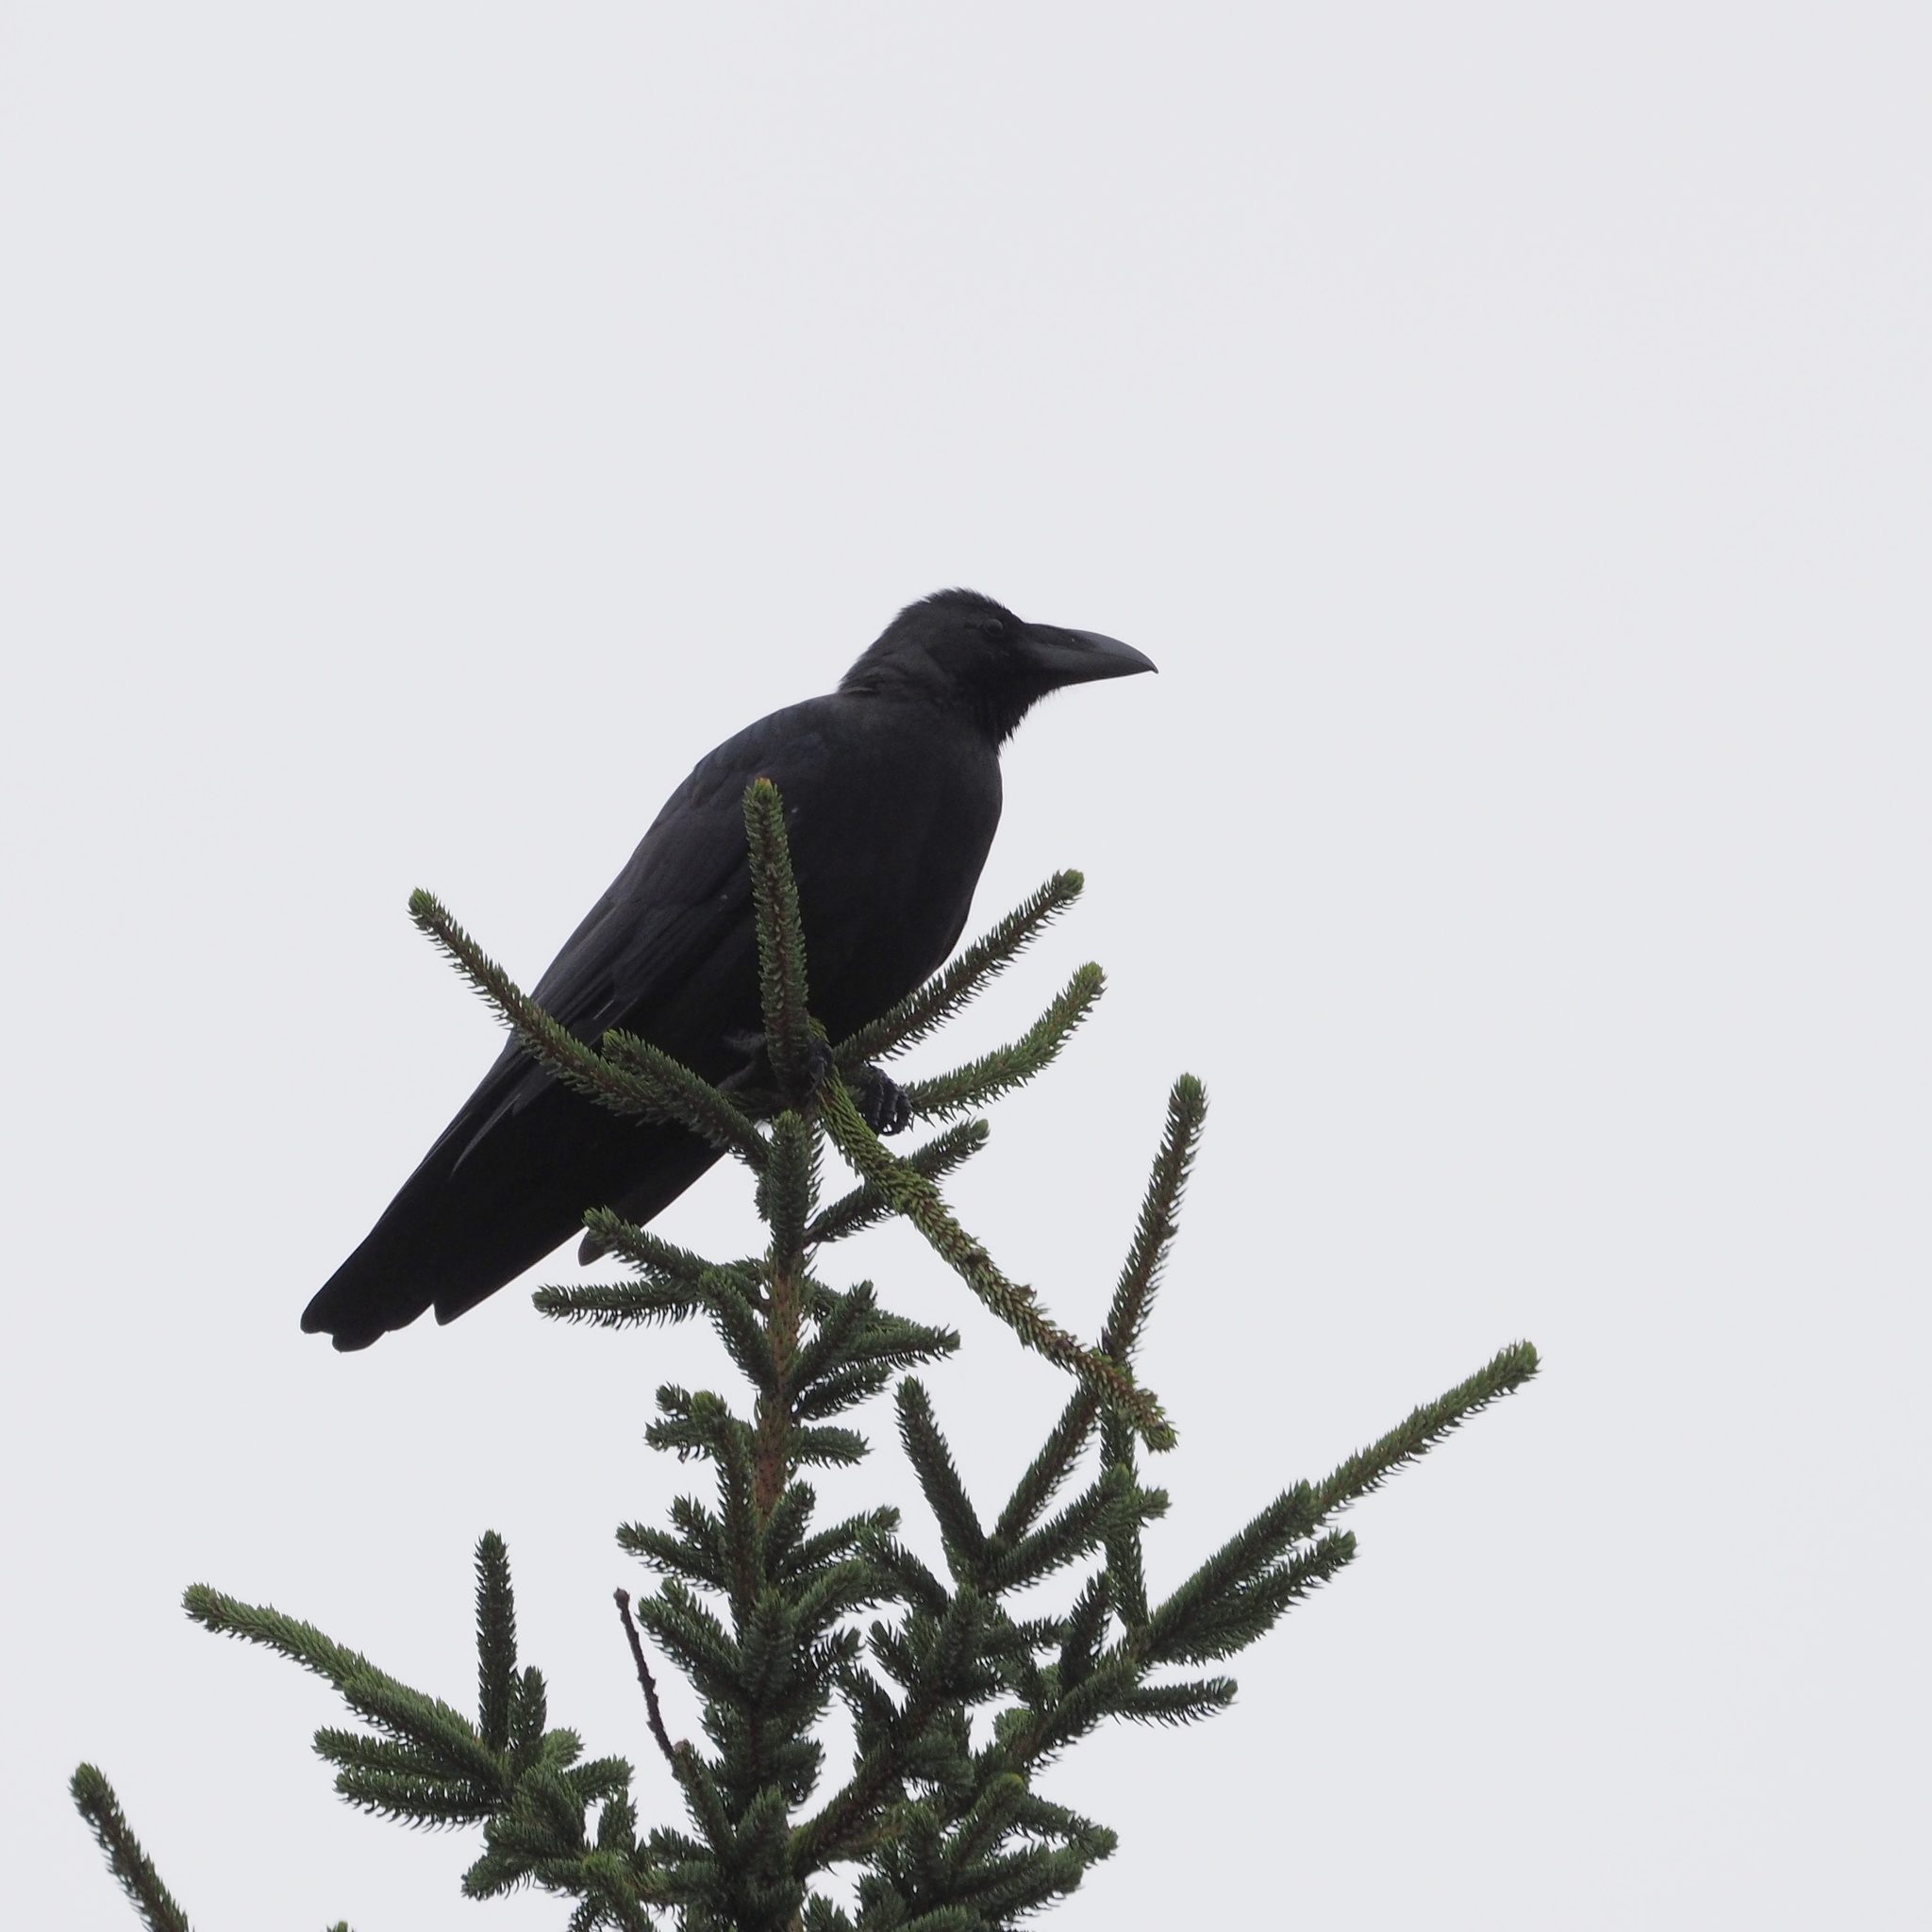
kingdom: Animalia
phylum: Chordata
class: Aves
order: Passeriformes
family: Corvidae
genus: Corvus
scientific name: Corvus macrorhynchos
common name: Large-billed crow
